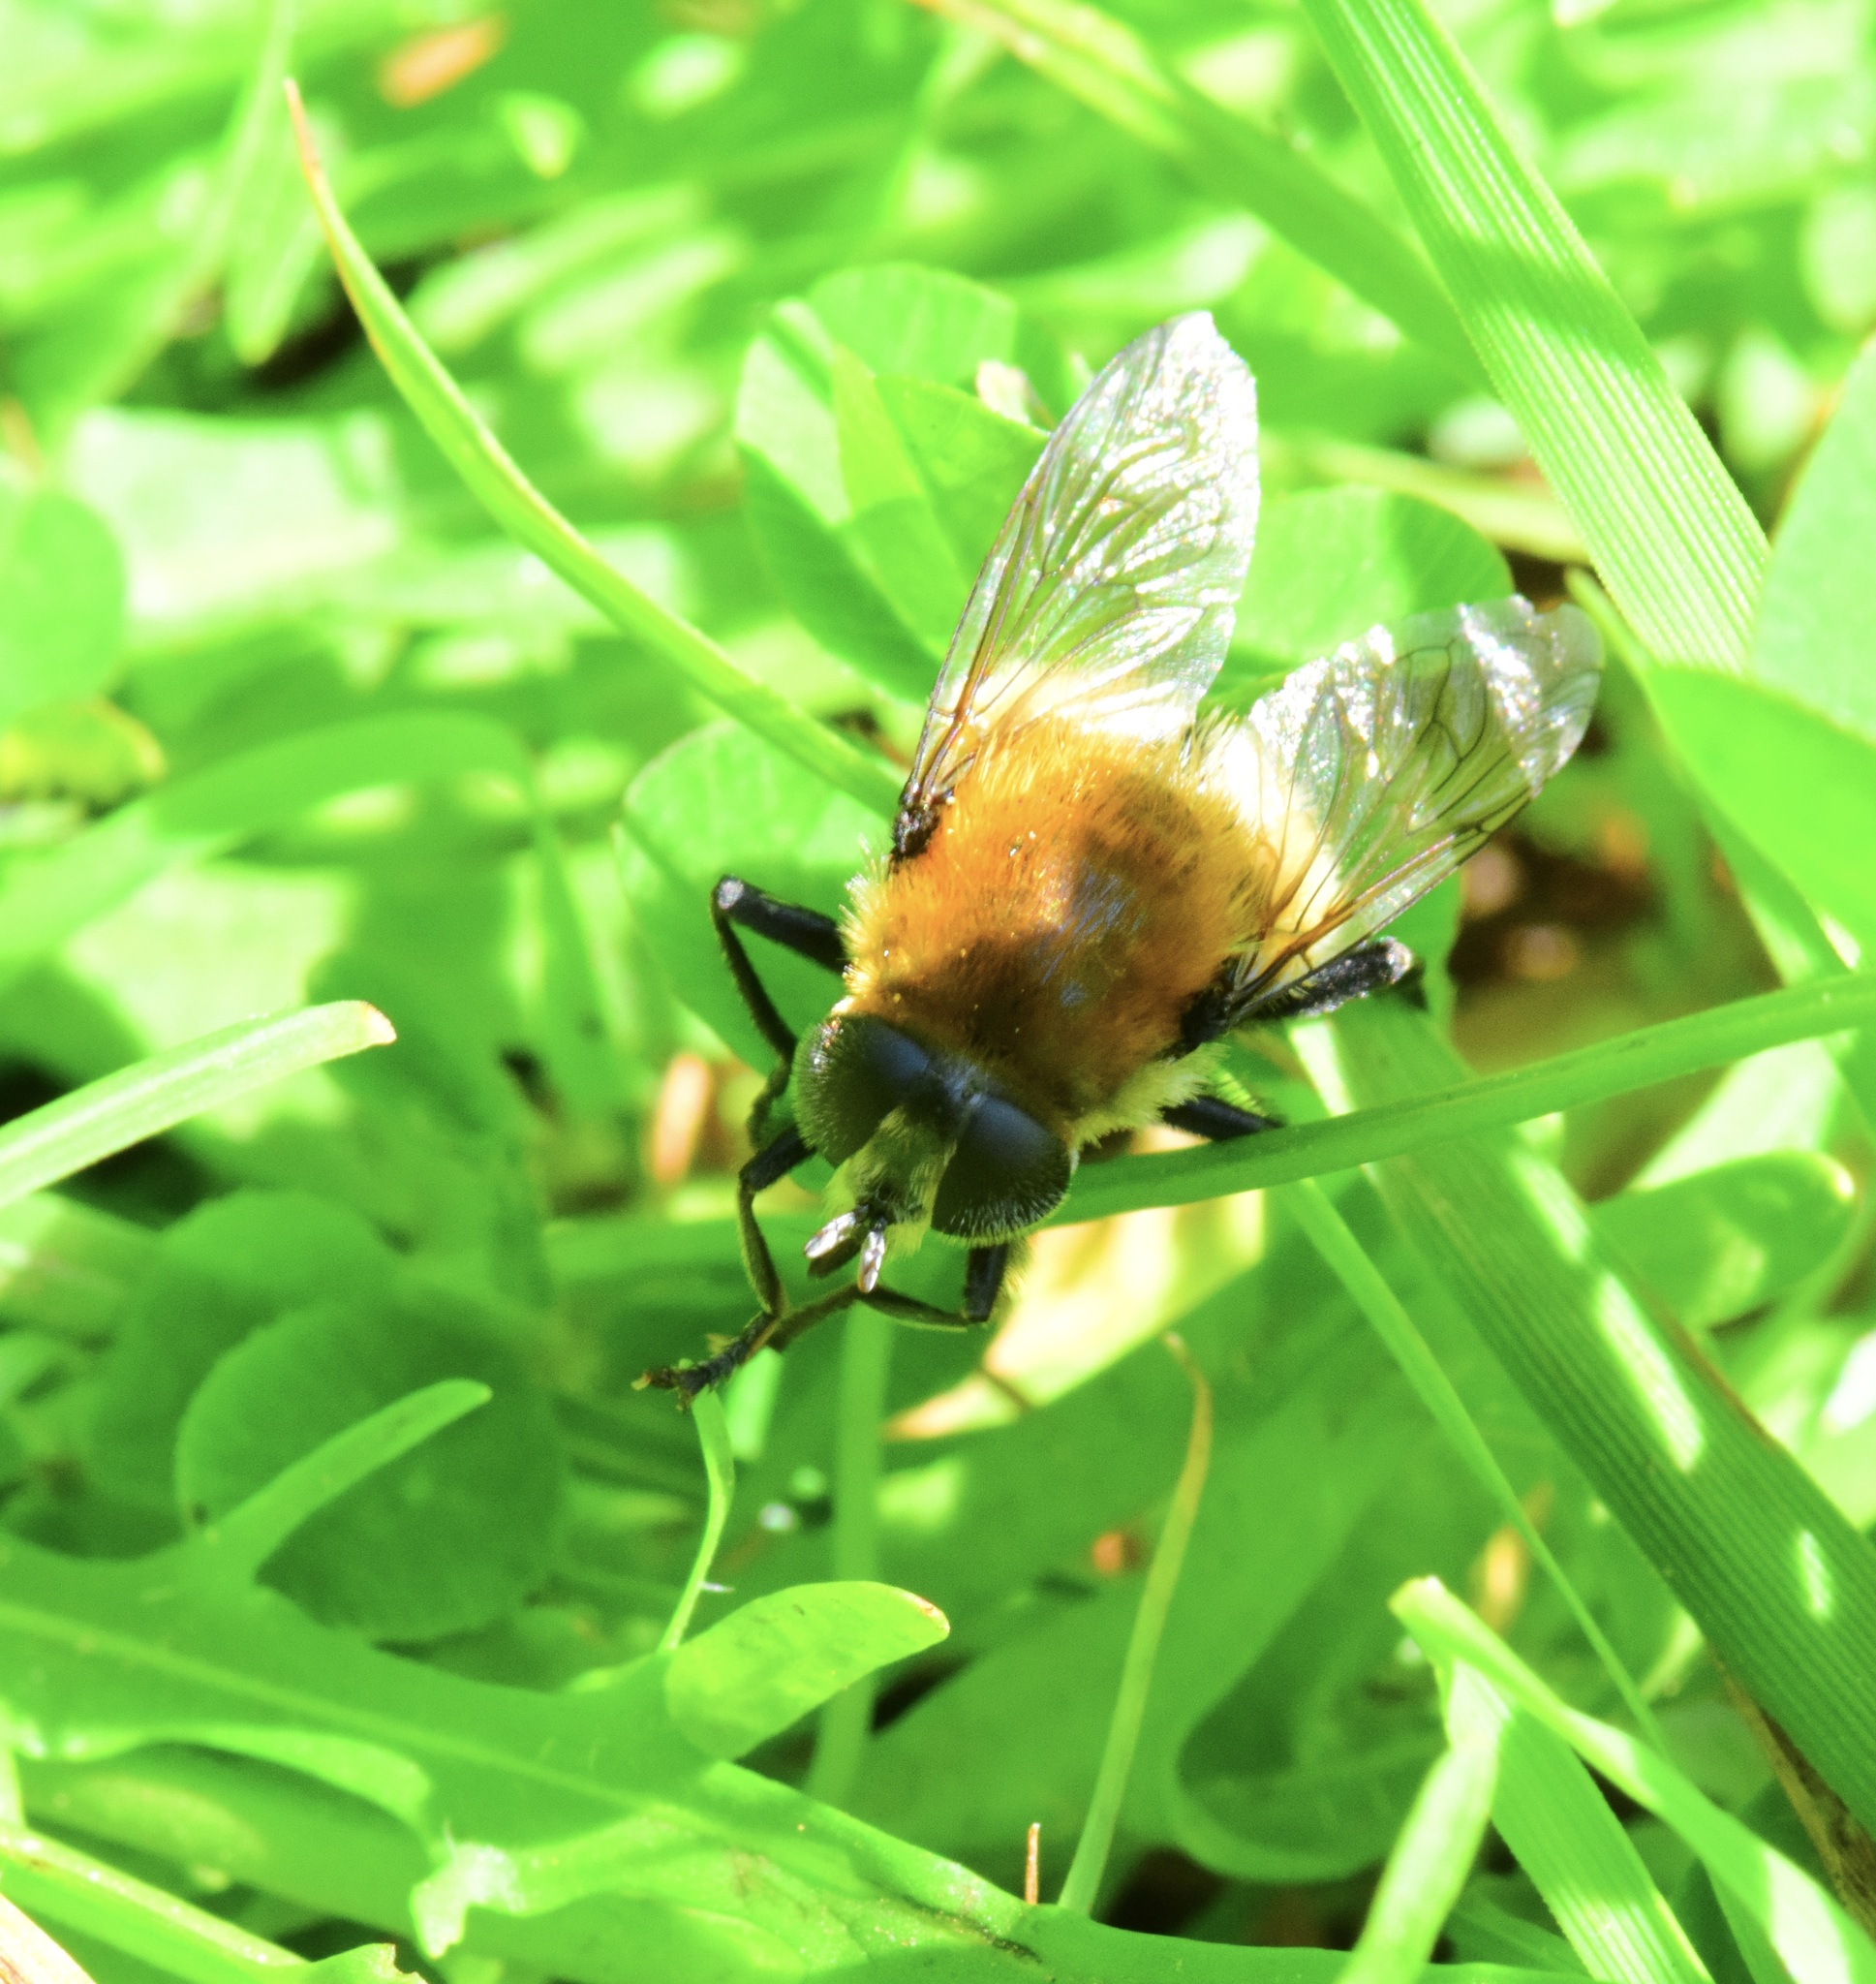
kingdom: Animalia
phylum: Arthropoda
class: Insecta
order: Diptera
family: Syrphidae
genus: Merodon
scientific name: Merodon equestris
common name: Greater bulb-fly
